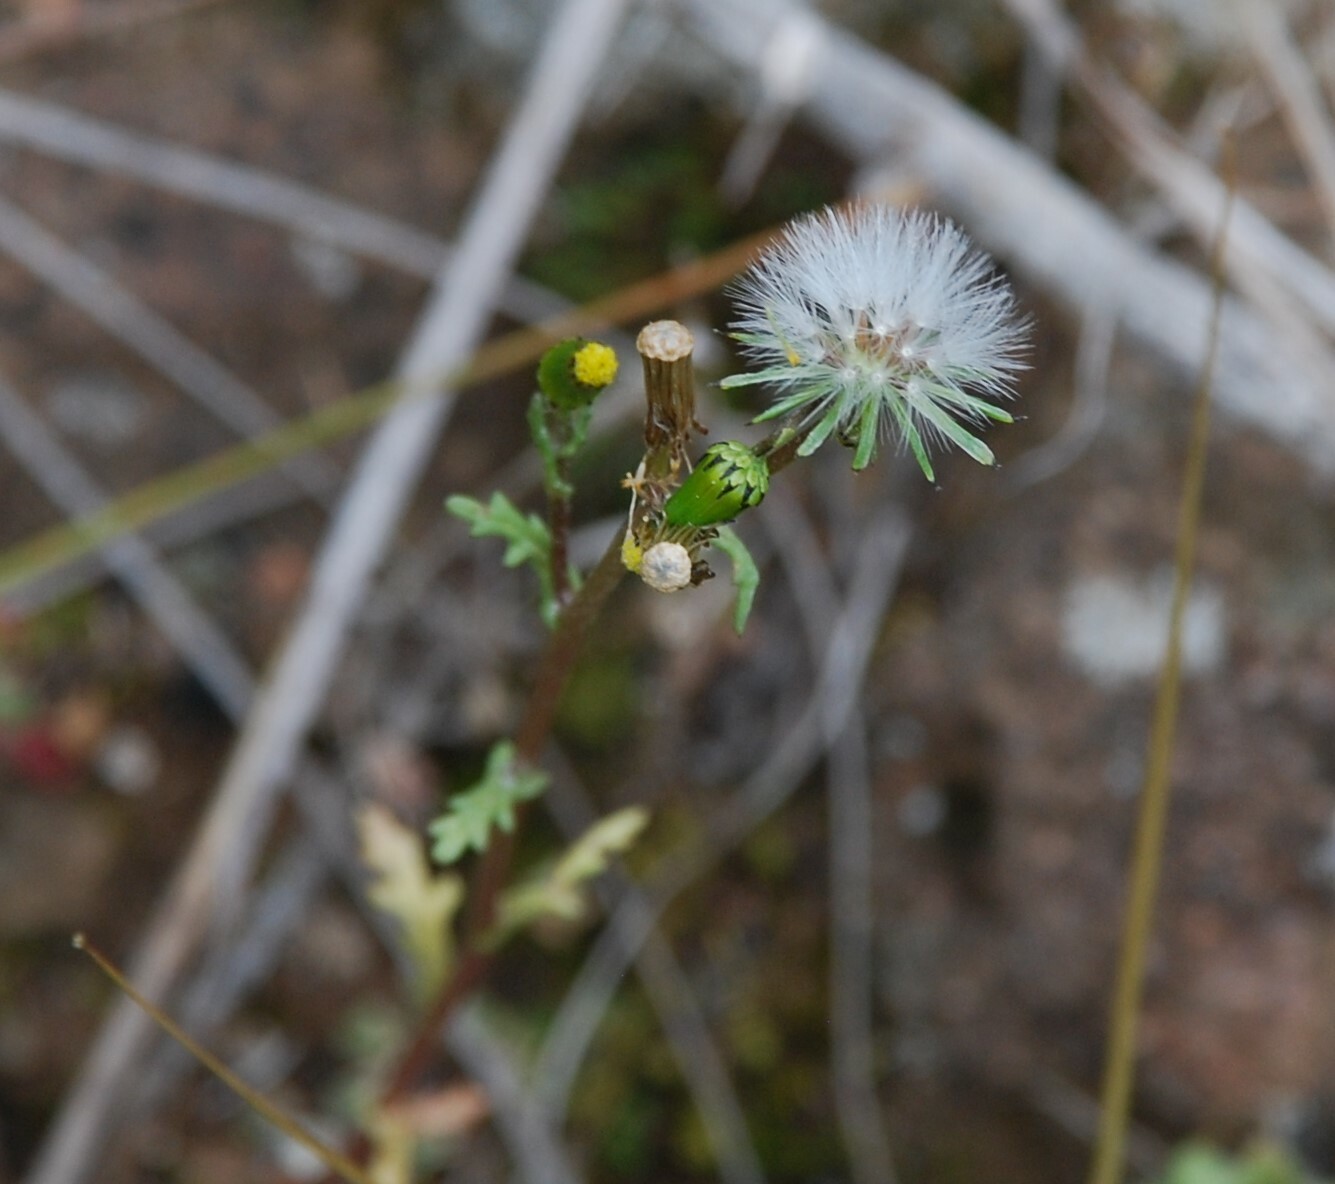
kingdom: Plantae
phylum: Tracheophyta
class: Magnoliopsida
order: Asterales
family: Asteraceae
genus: Senecio
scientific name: Senecio vulgaris
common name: Old-man-in-the-spring
